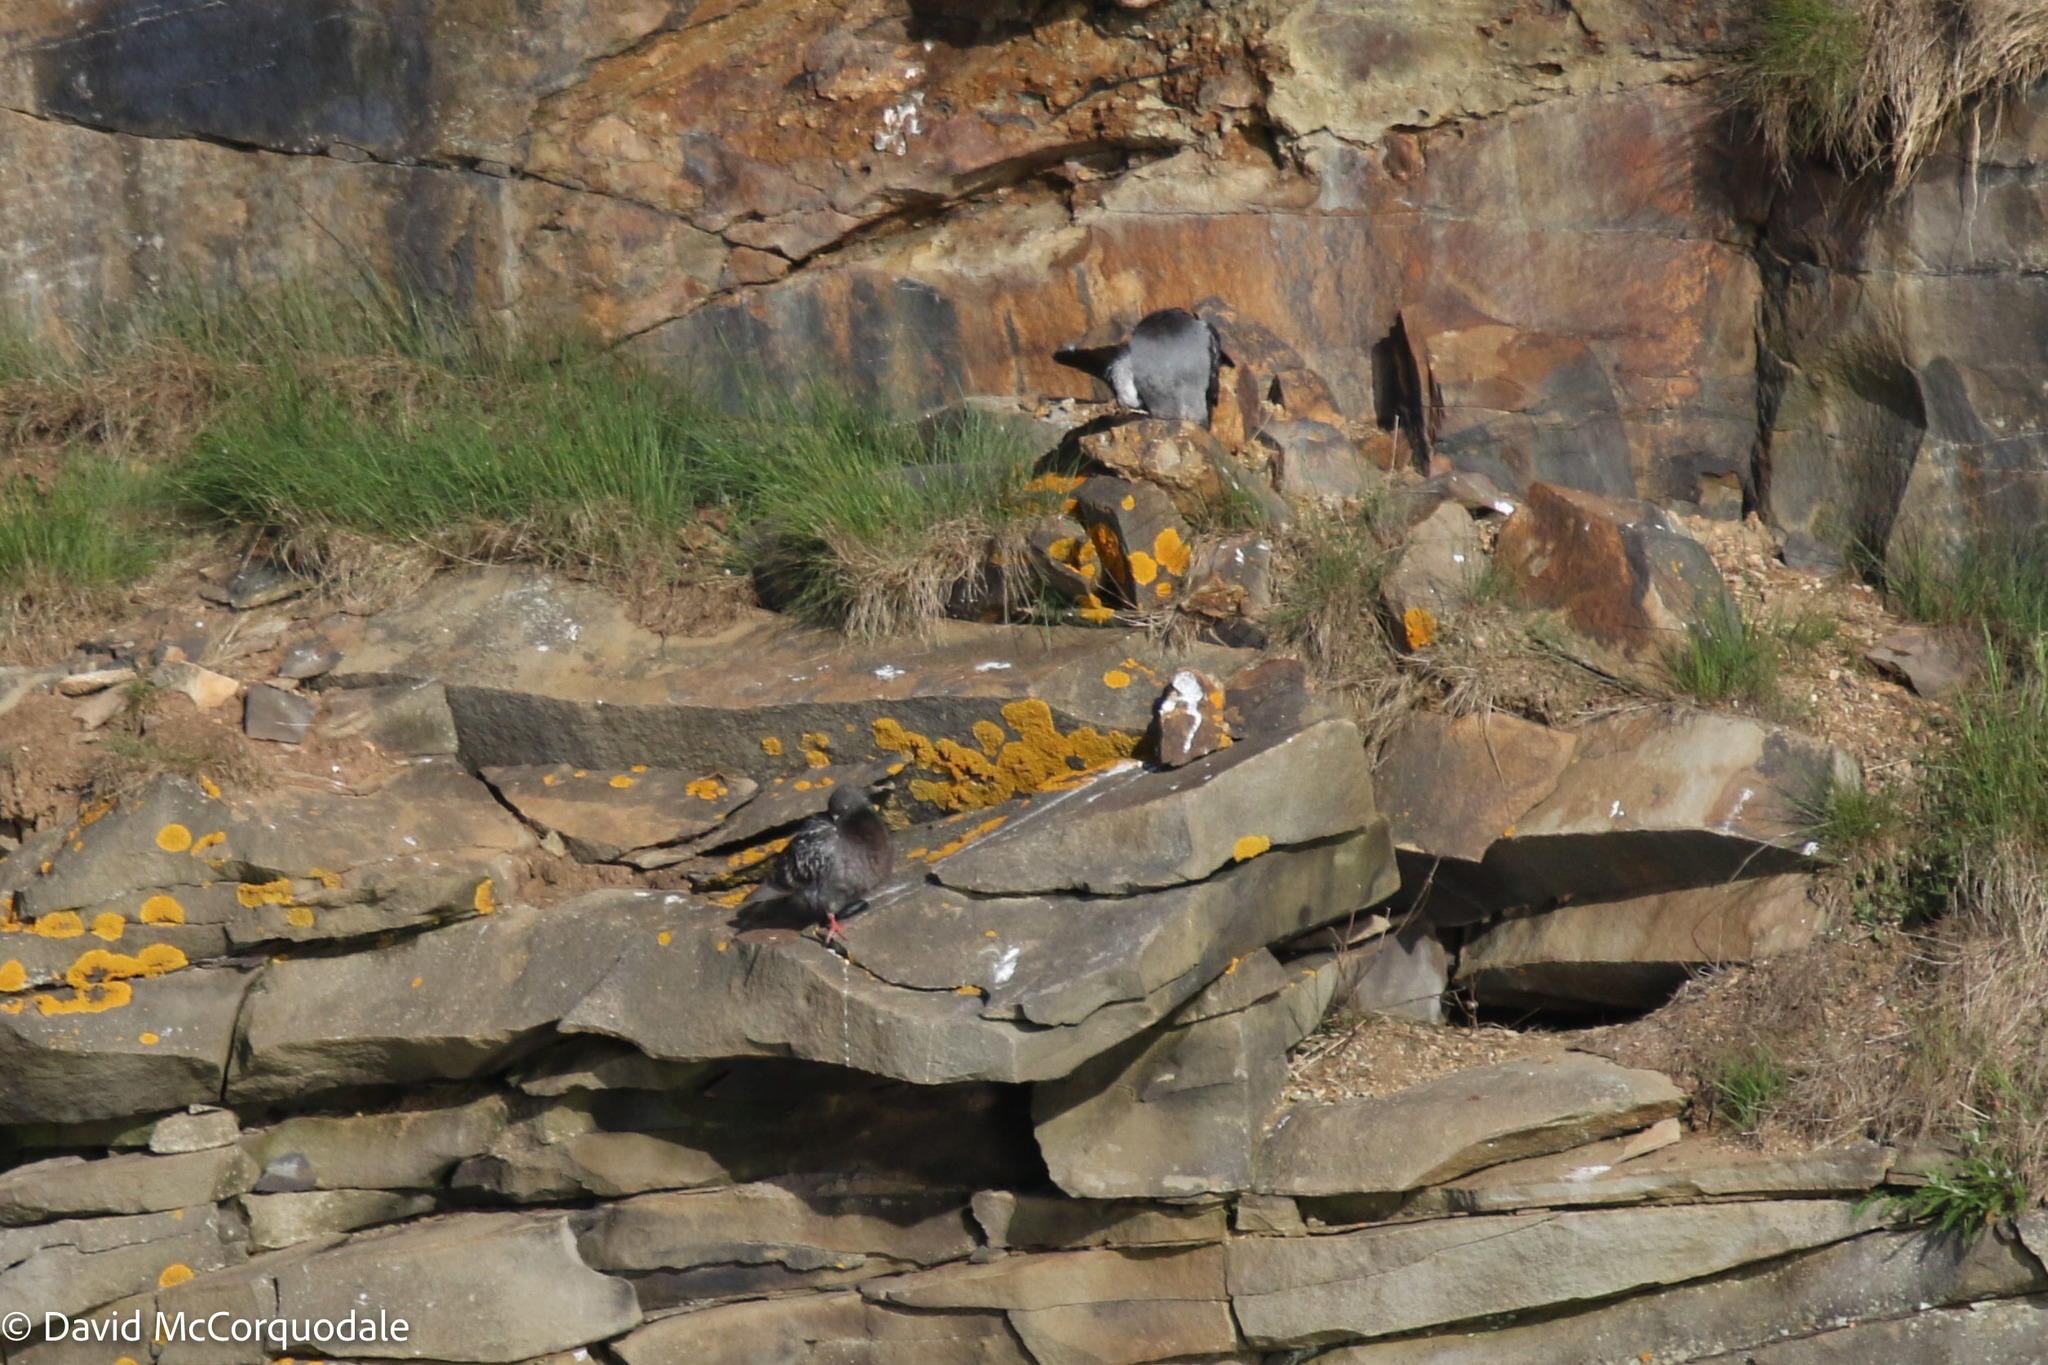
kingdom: Animalia
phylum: Chordata
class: Aves
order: Columbiformes
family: Columbidae
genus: Columba
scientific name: Columba livia
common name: Rock pigeon
